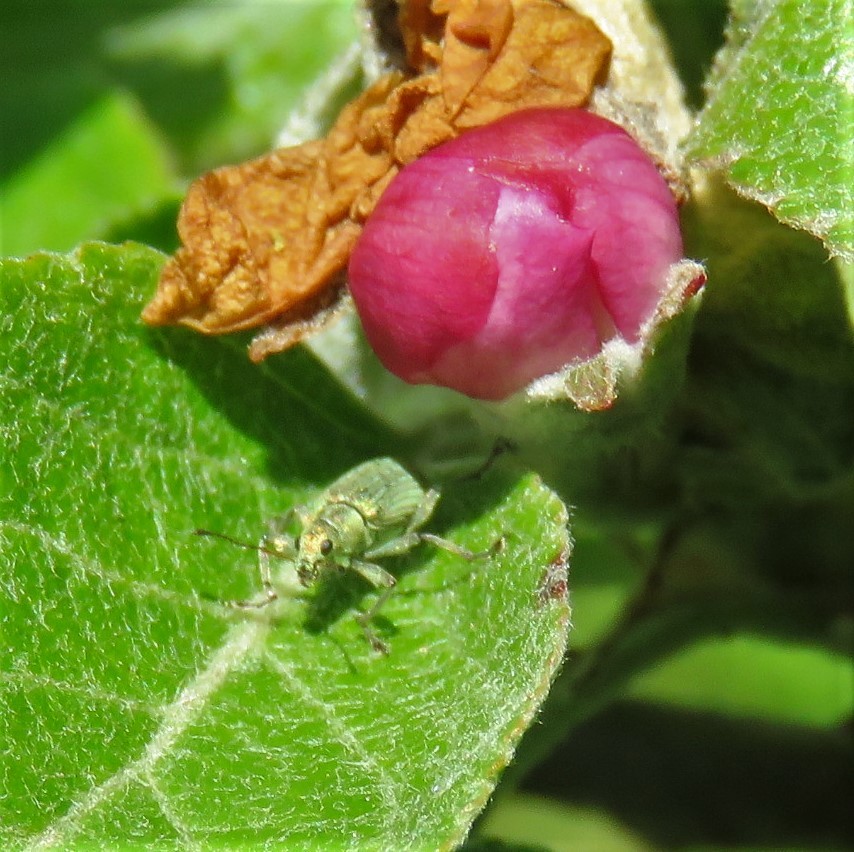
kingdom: Animalia
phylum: Arthropoda
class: Insecta
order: Coleoptera
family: Curculionidae
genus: Polydrusus
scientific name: Polydrusus formosus
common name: Weevil
